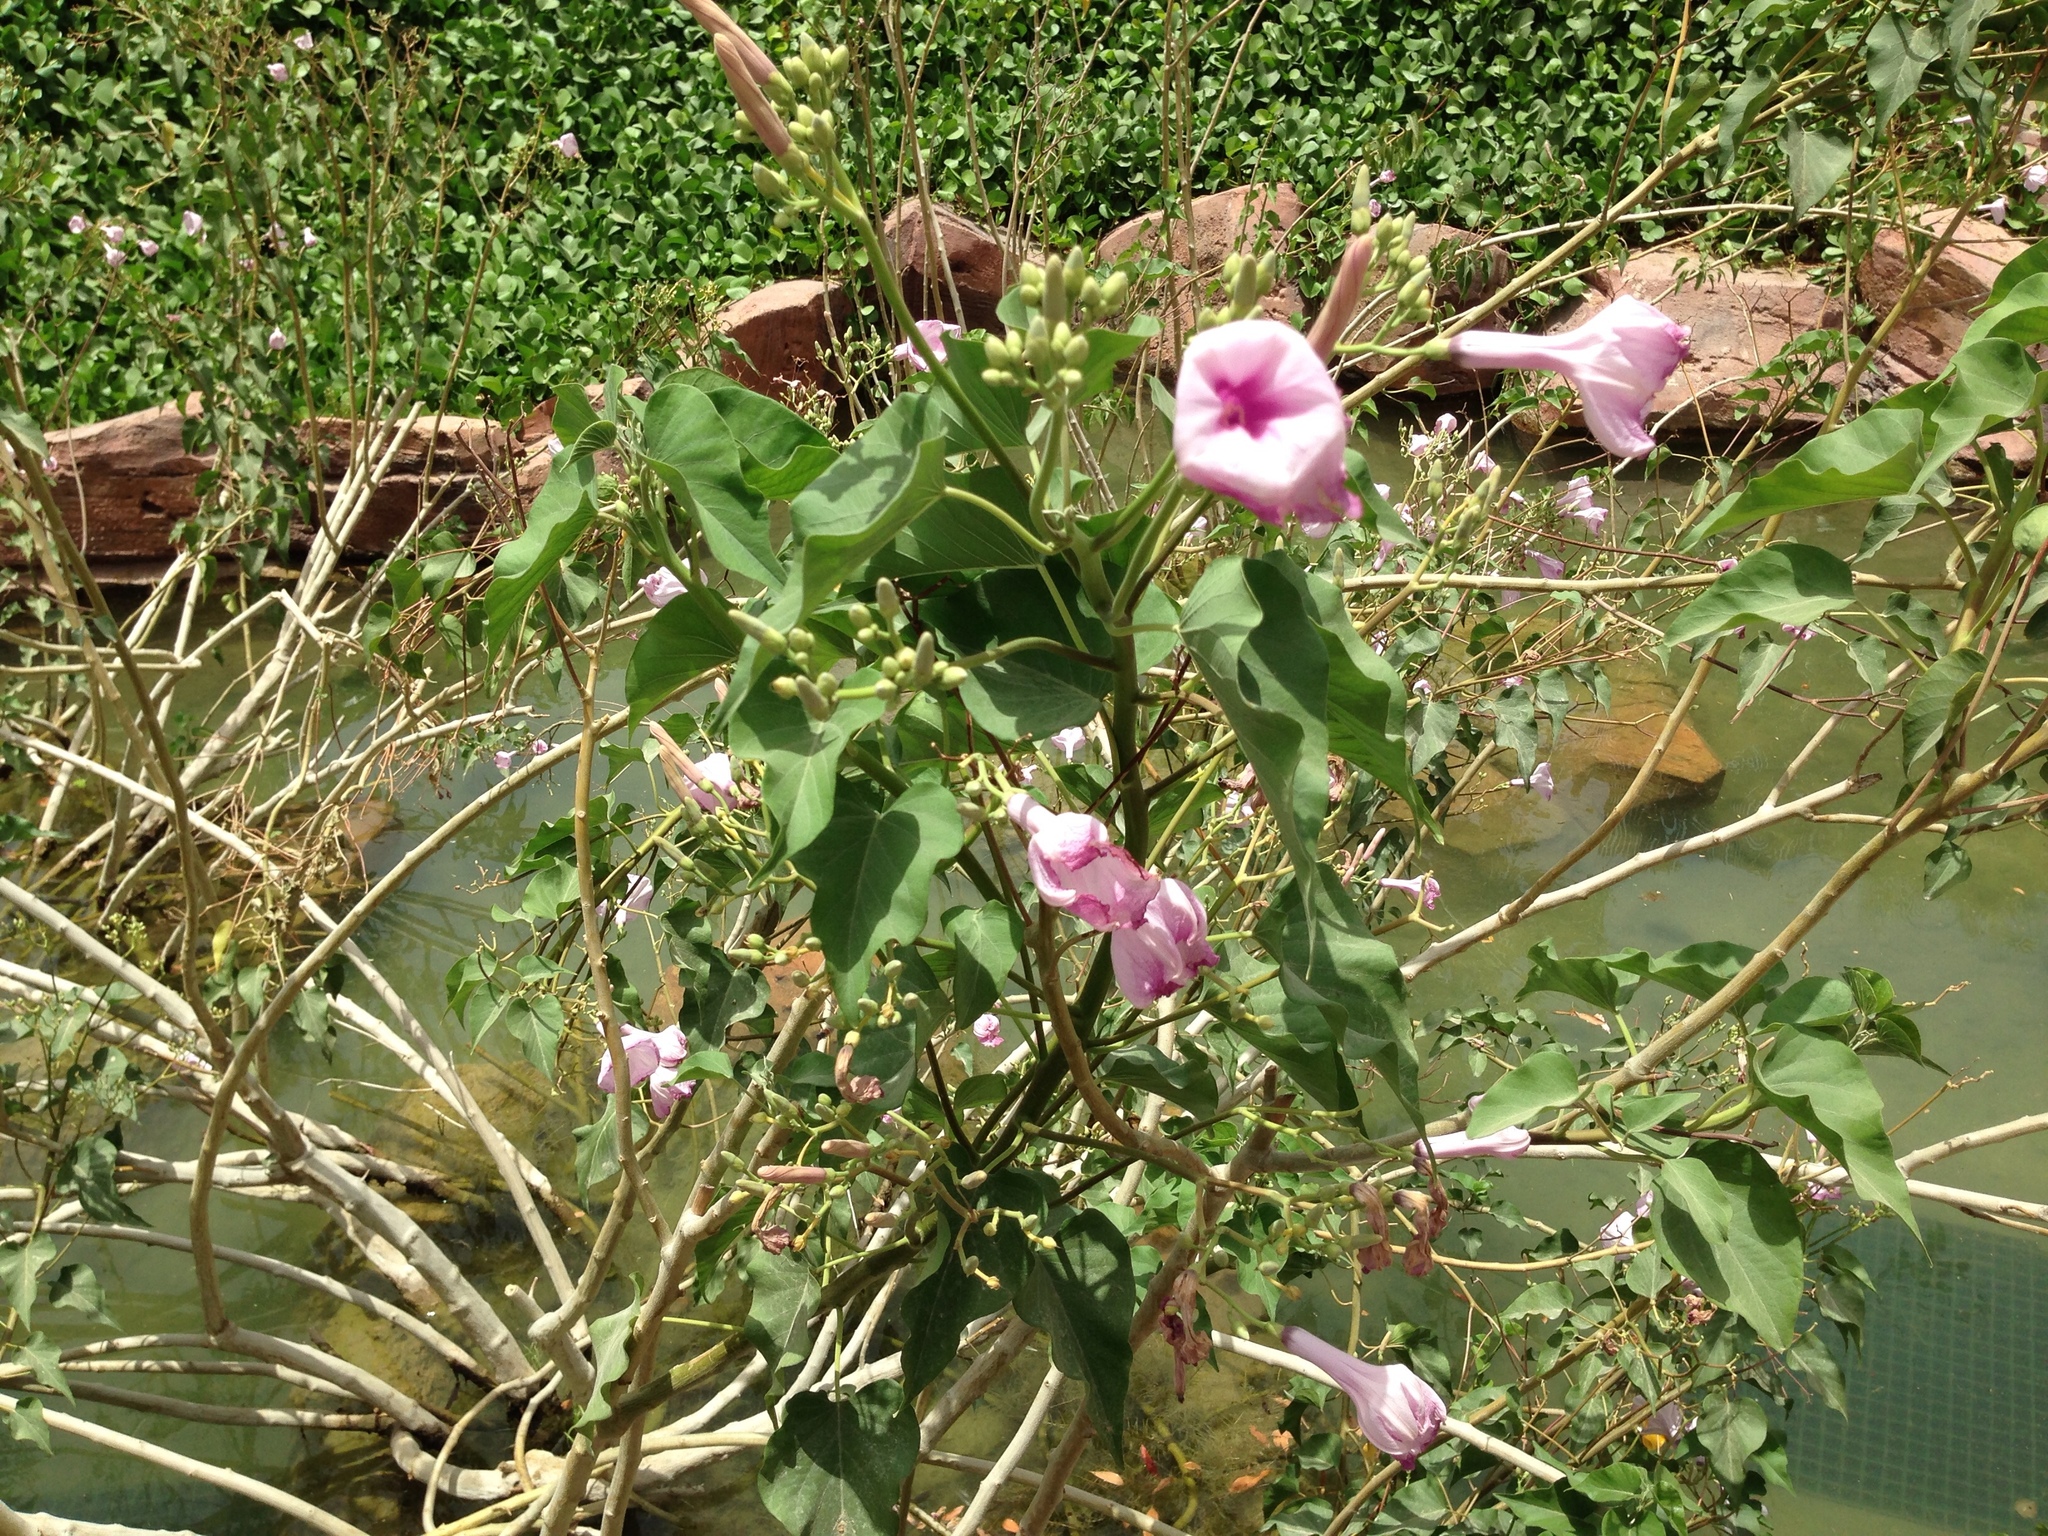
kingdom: Plantae
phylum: Tracheophyta
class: Magnoliopsida
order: Solanales
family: Convolvulaceae
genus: Ipomoea
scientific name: Ipomoea carnea
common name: Morning-glory
